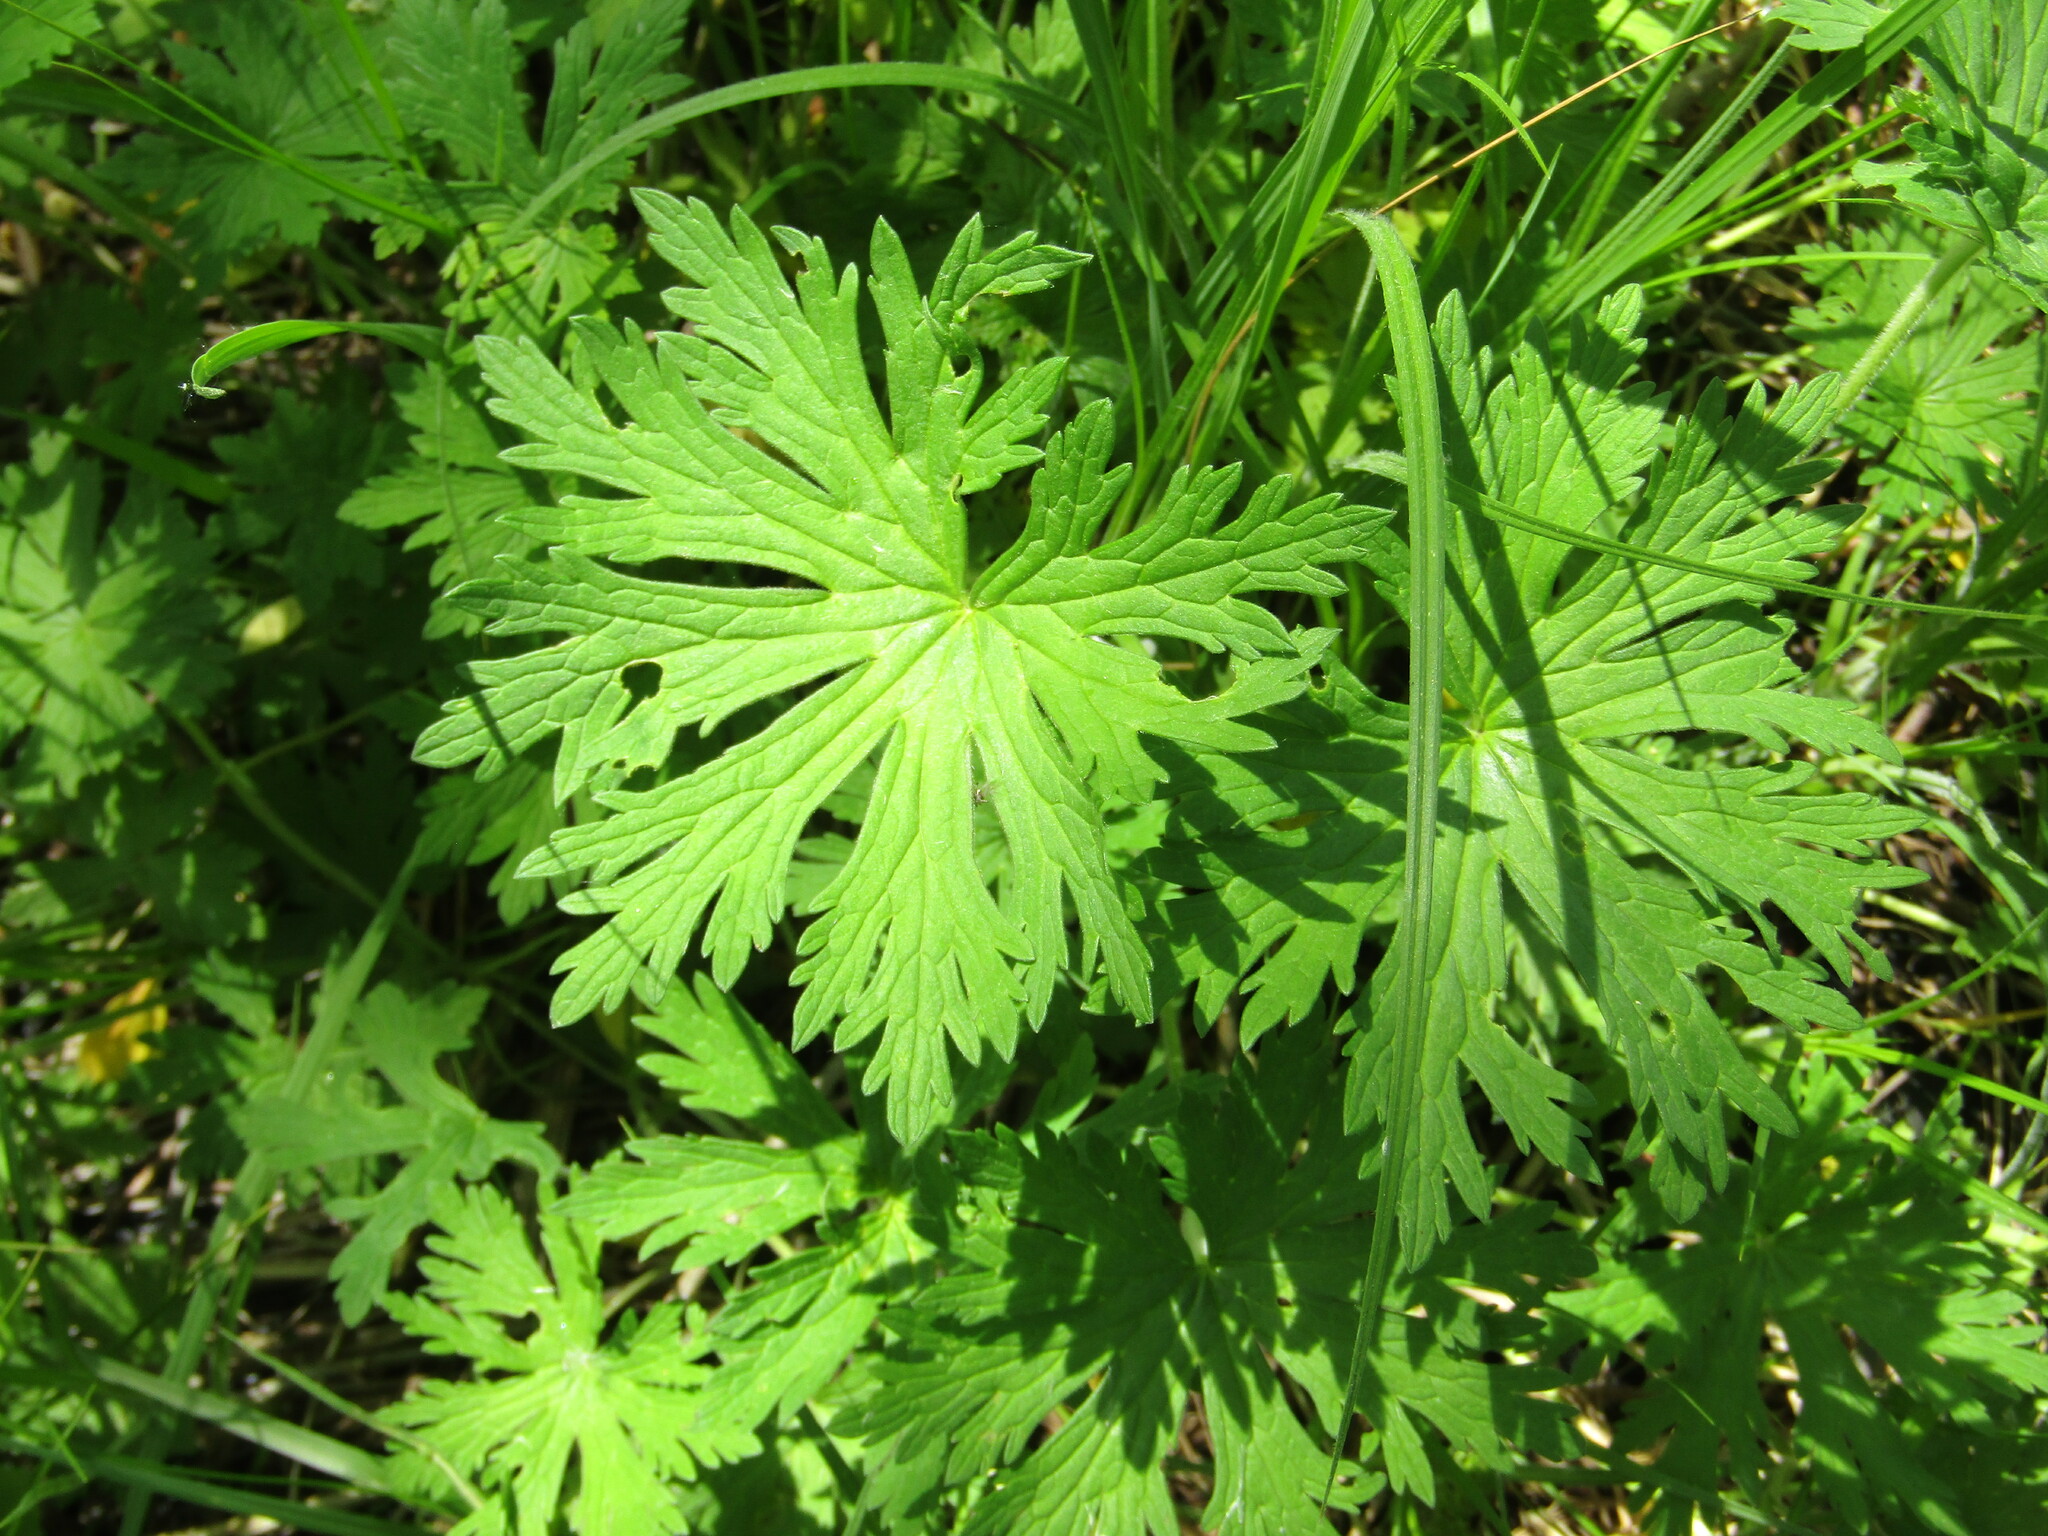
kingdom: Plantae
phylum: Tracheophyta
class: Magnoliopsida
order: Geraniales
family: Geraniaceae
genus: Geranium
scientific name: Geranium pratense
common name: Meadow crane's-bill
